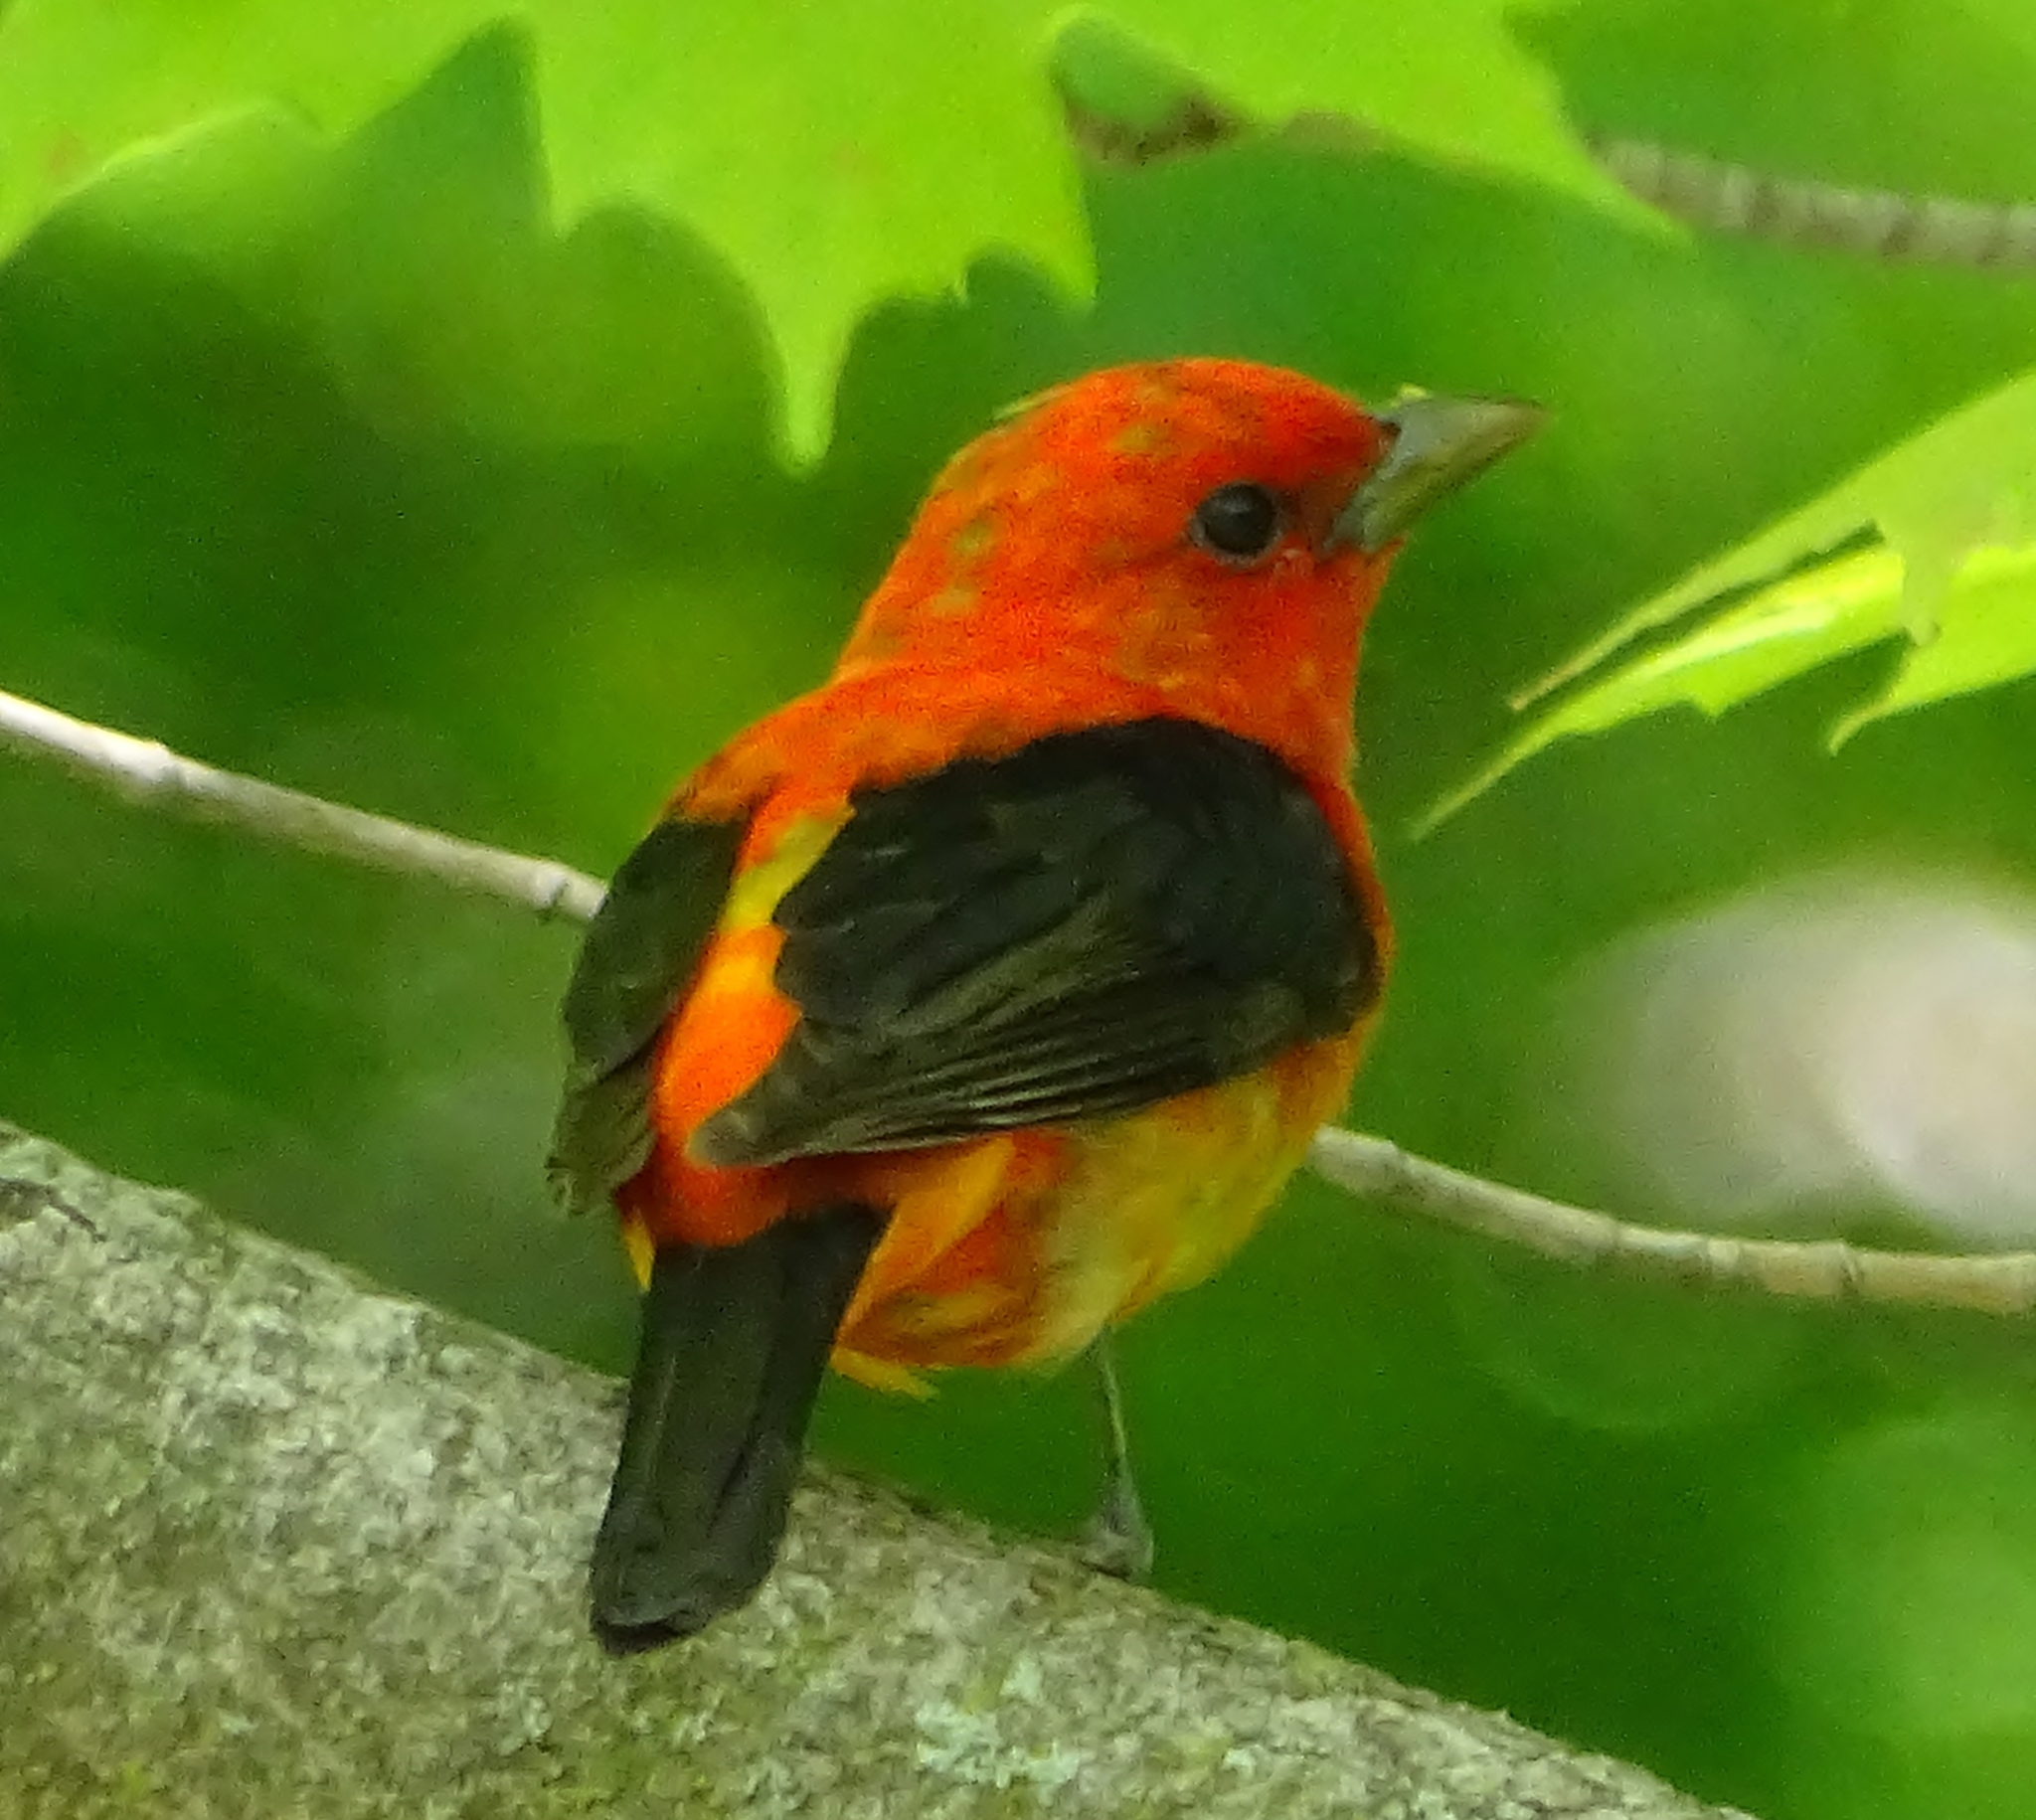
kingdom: Animalia
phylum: Chordata
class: Aves
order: Passeriformes
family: Cardinalidae
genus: Piranga
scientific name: Piranga olivacea
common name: Scarlet tanager
